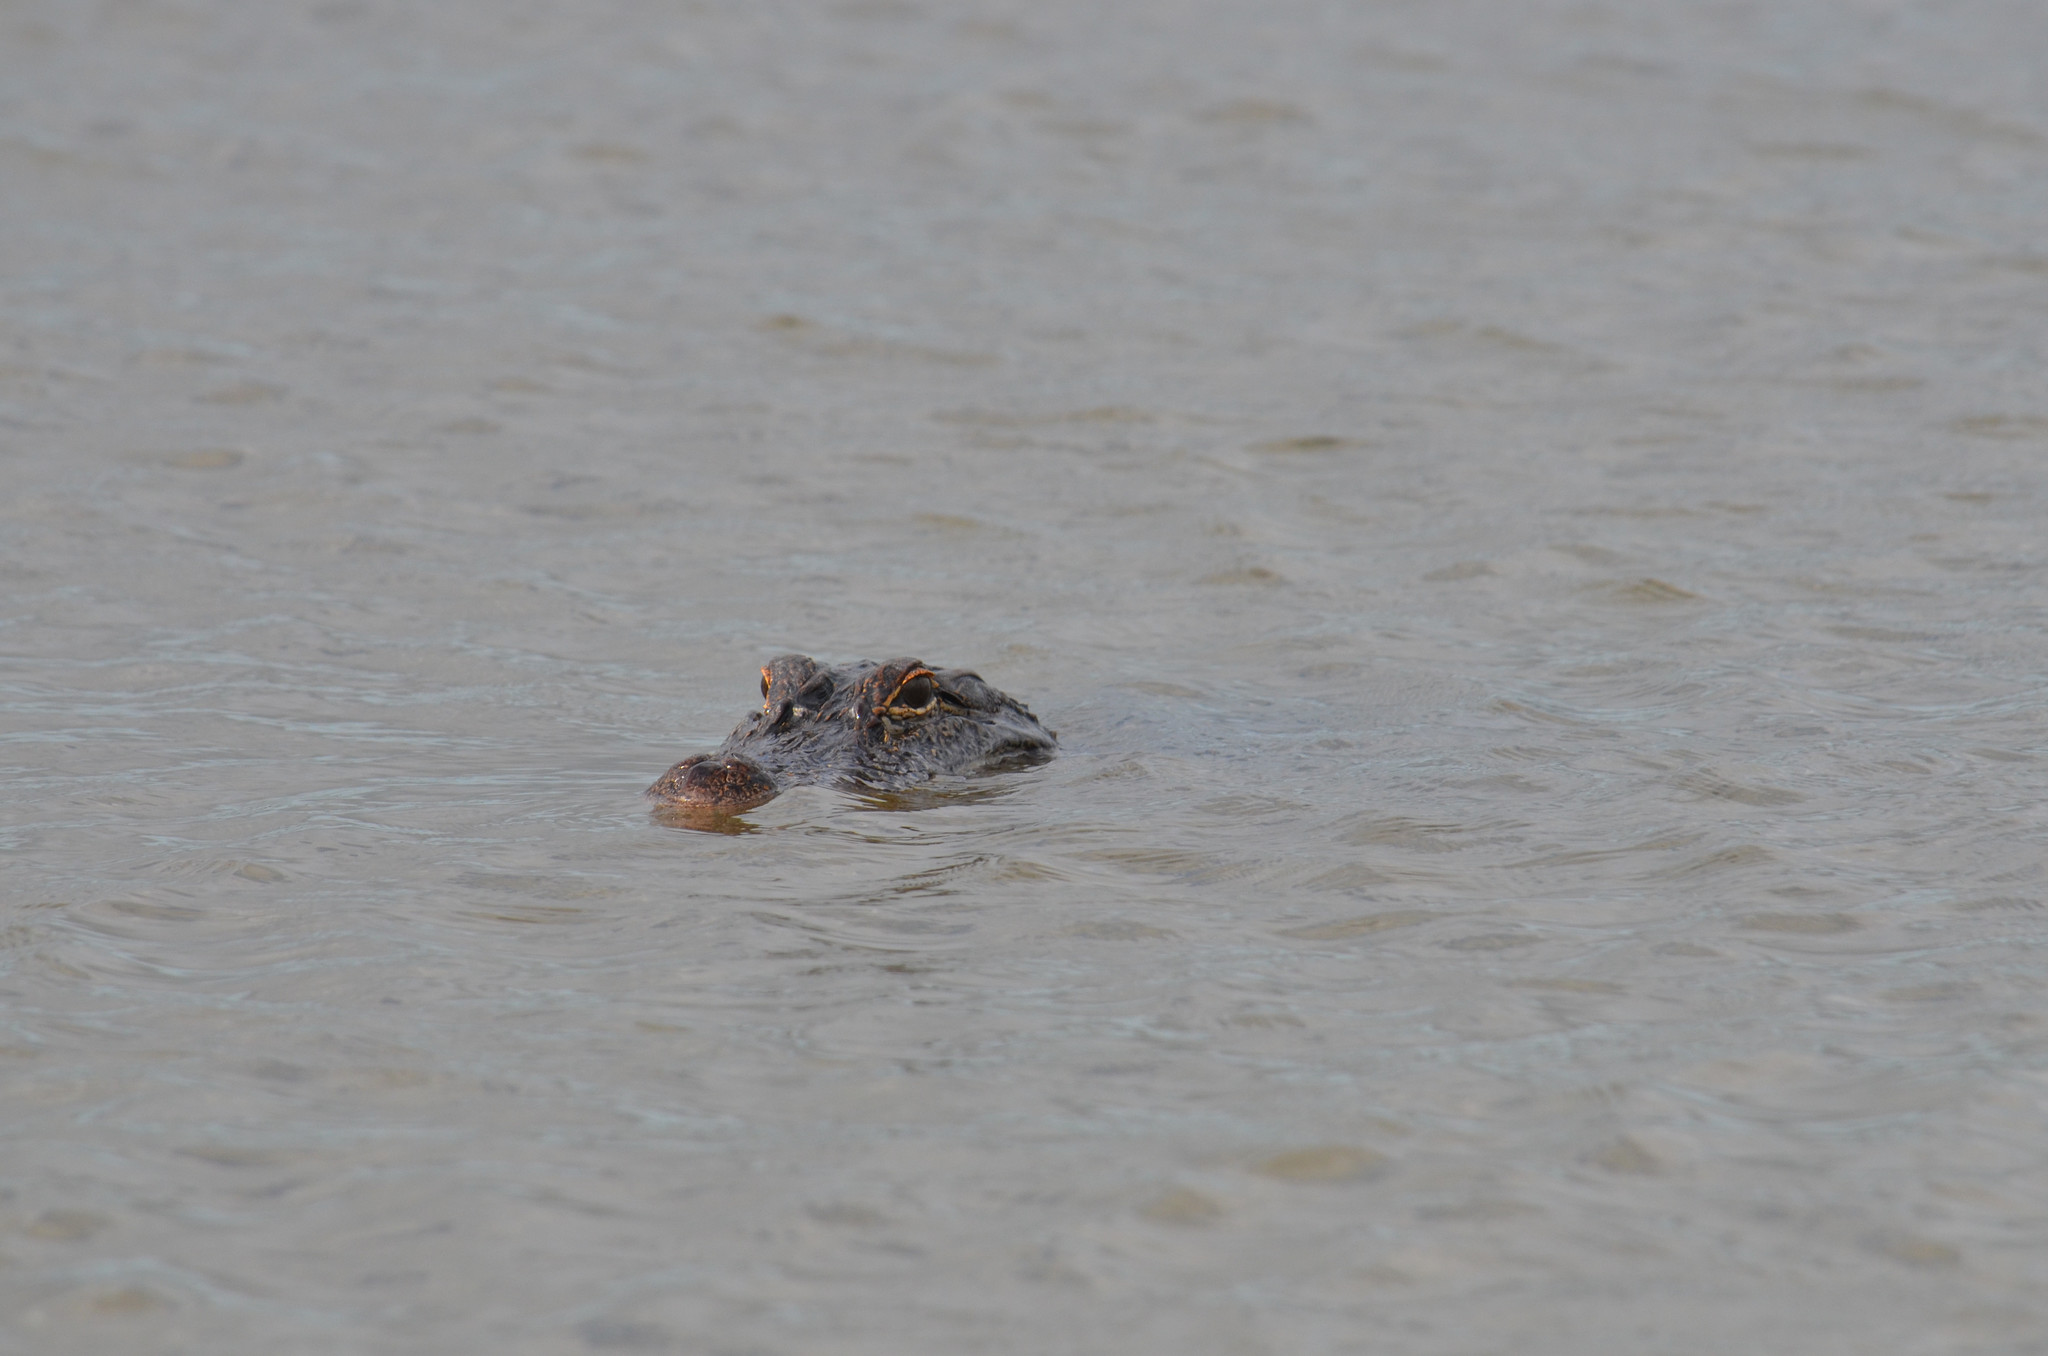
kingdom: Animalia
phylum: Chordata
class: Crocodylia
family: Alligatoridae
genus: Alligator
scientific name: Alligator mississippiensis
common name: American alligator
